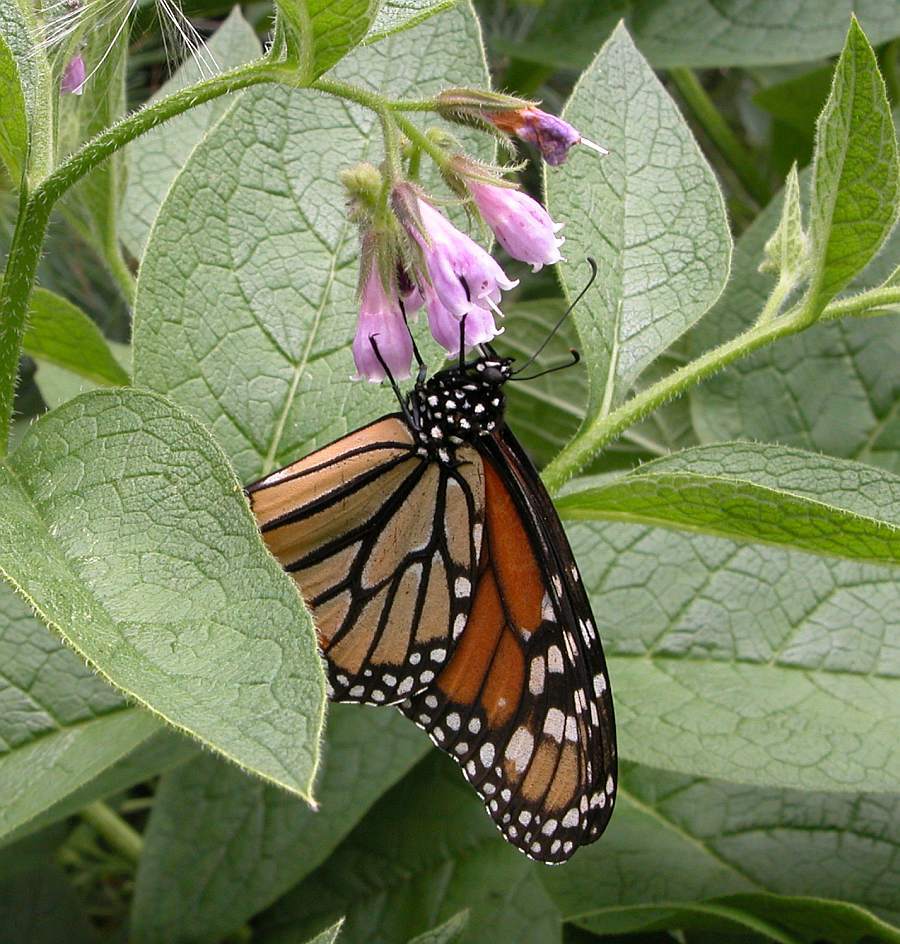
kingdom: Animalia
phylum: Arthropoda
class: Insecta
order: Lepidoptera
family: Nymphalidae
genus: Danaus
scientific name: Danaus plexippus
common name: Monarch
